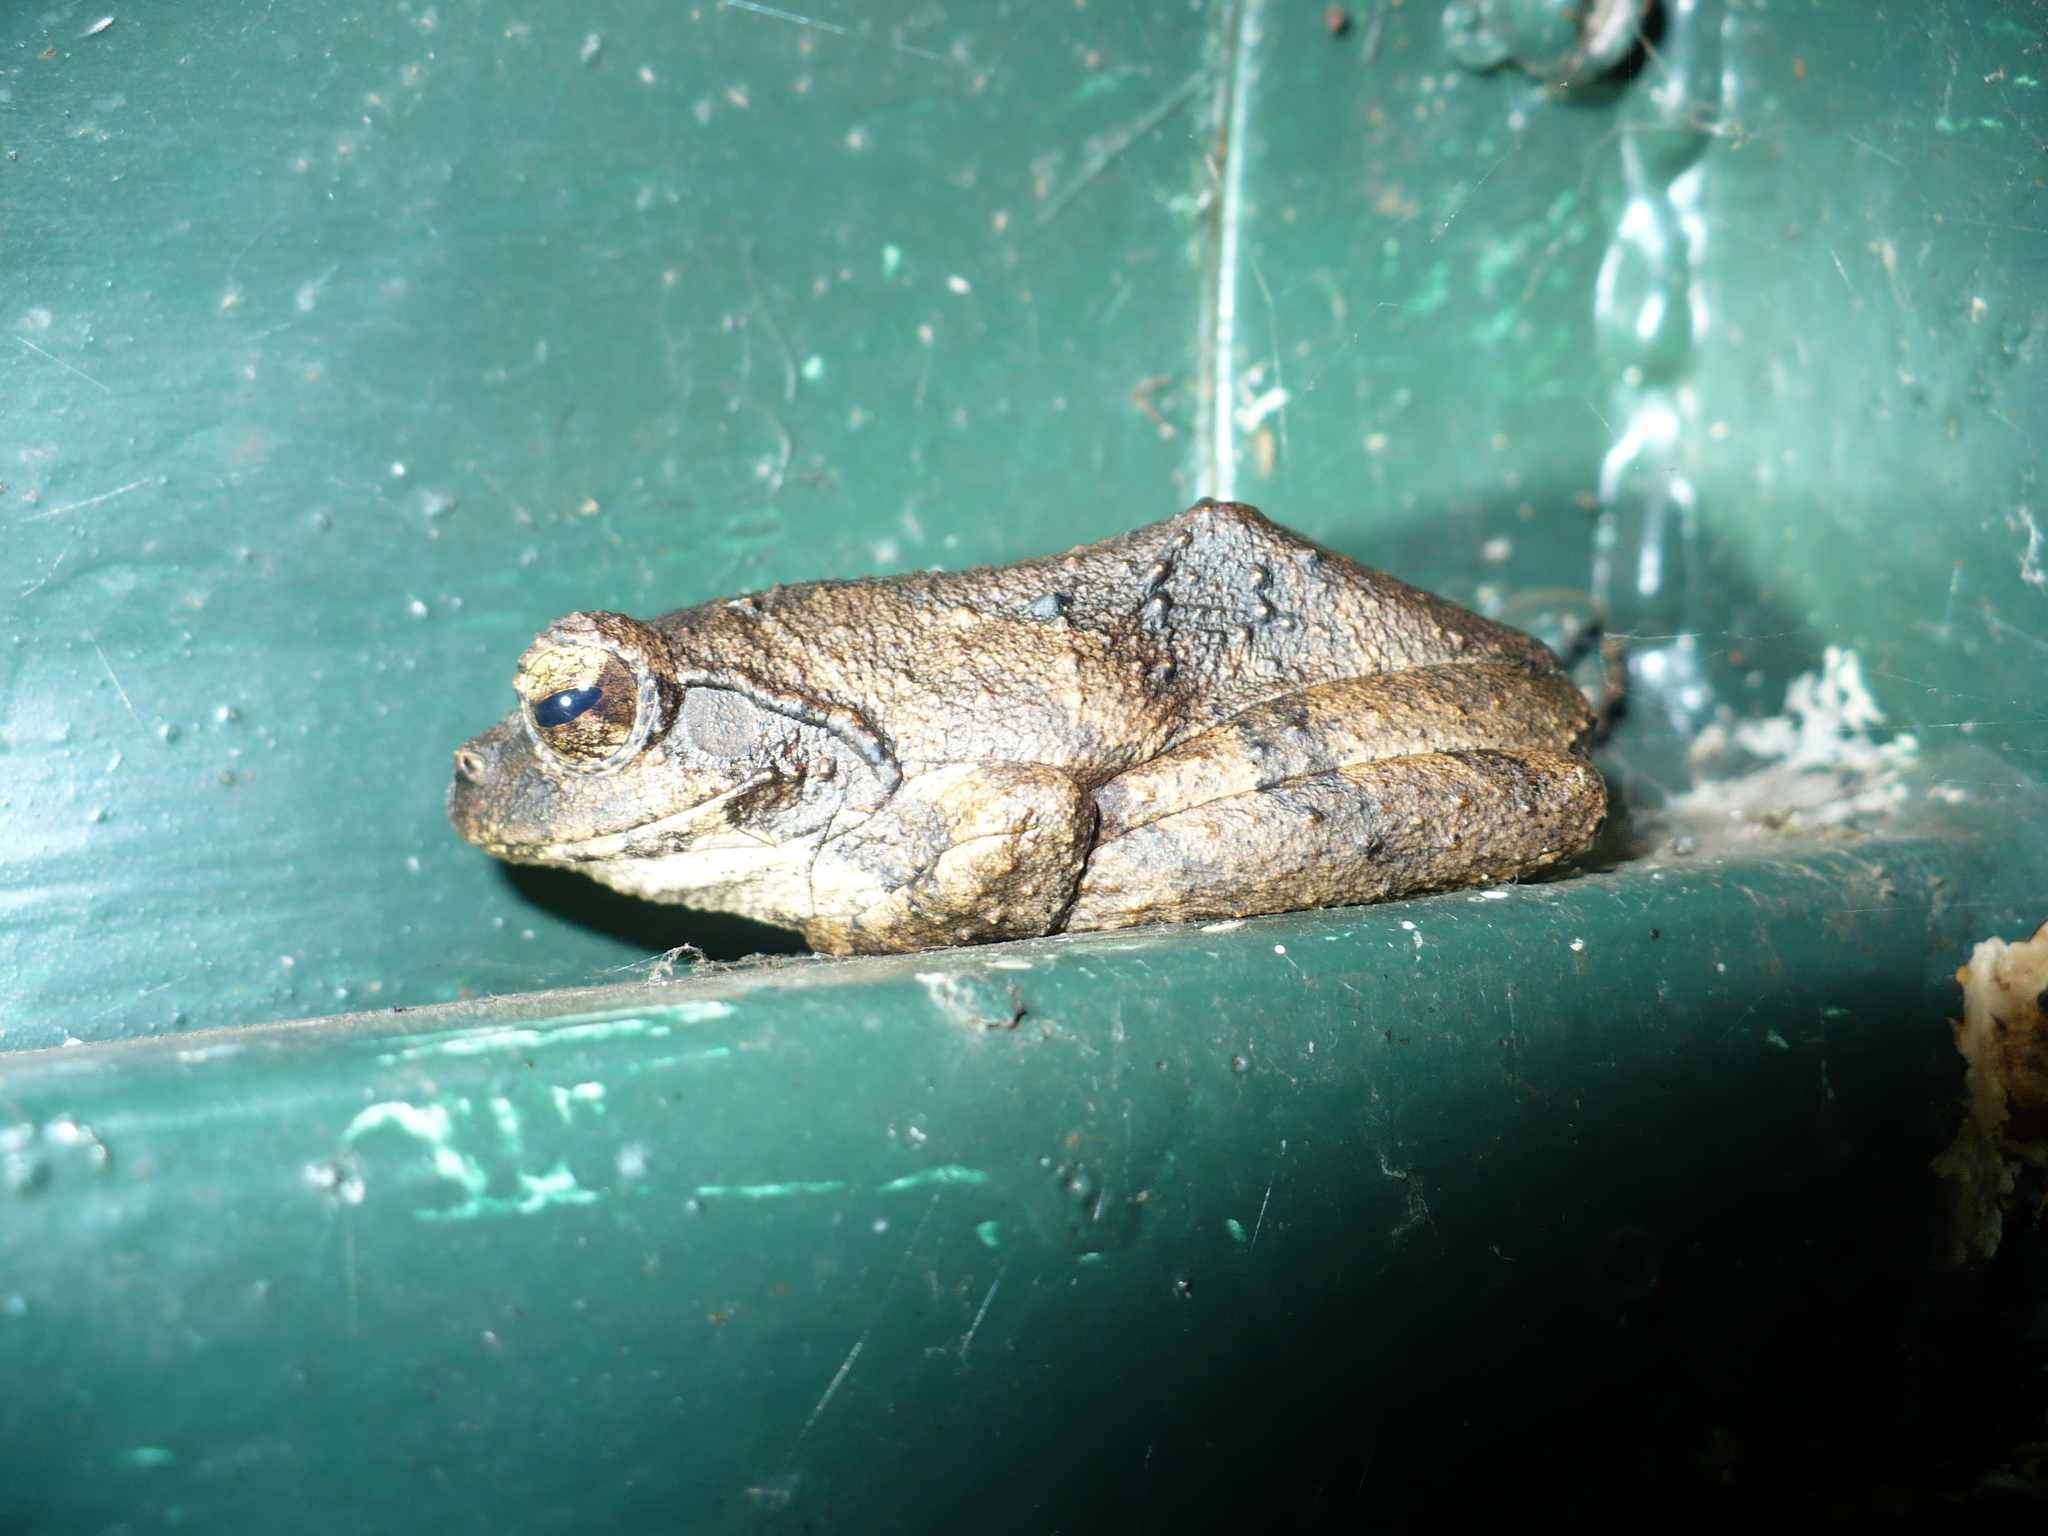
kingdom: Animalia
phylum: Chordata
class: Amphibia
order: Anura
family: Rhacophoridae
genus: Chiromantis
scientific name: Chiromantis xerampelina
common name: African gray treefrog
